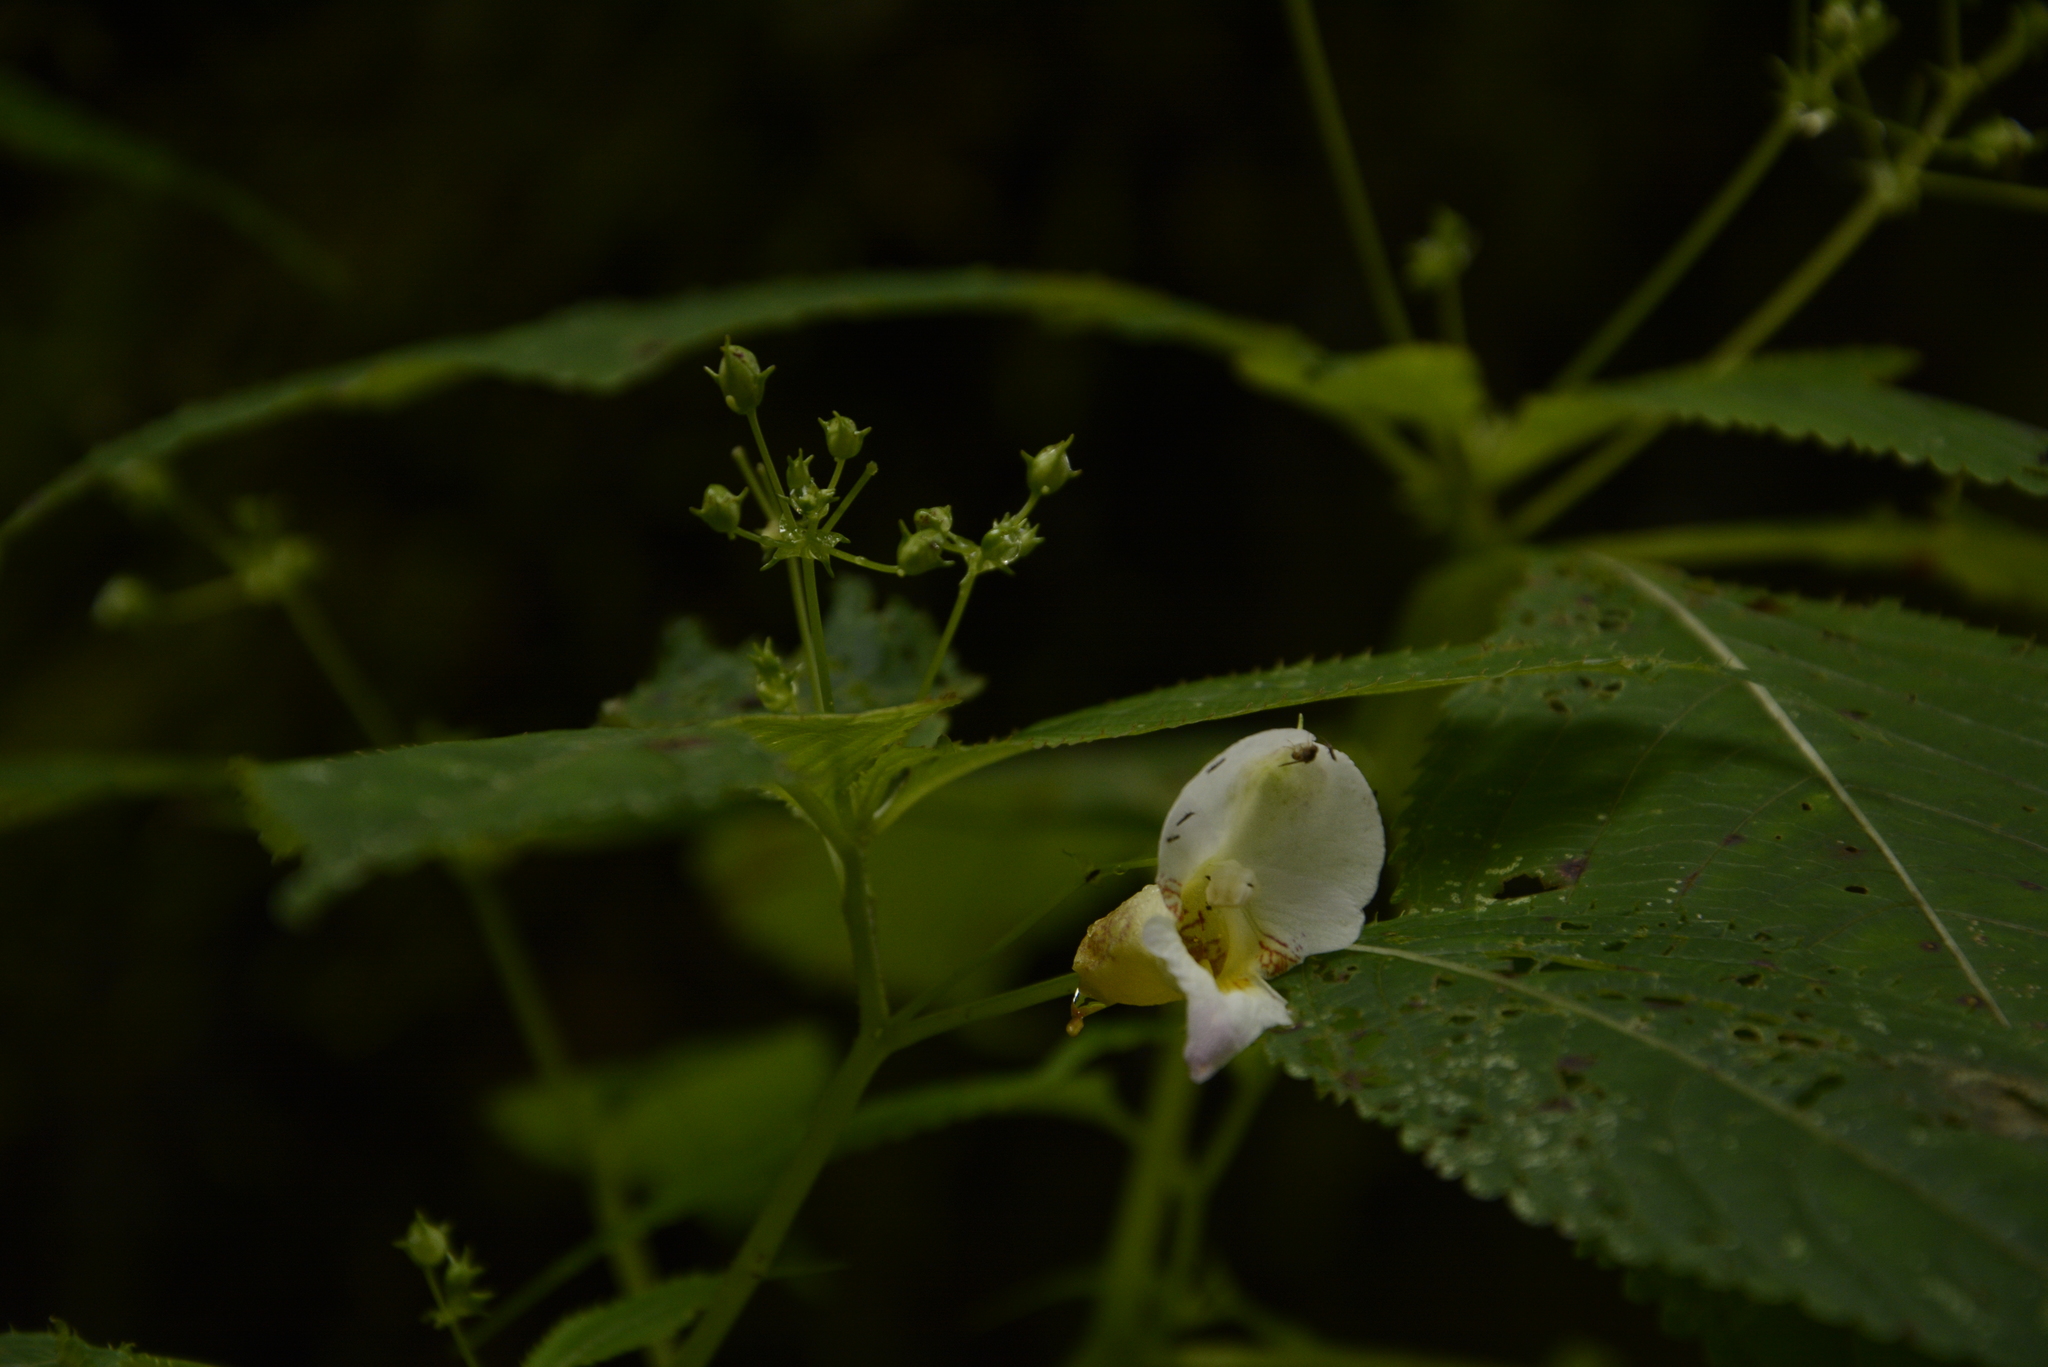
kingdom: Plantae
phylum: Tracheophyta
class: Magnoliopsida
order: Ericales
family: Balsaminaceae
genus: Impatiens
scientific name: Impatiens devendrae
